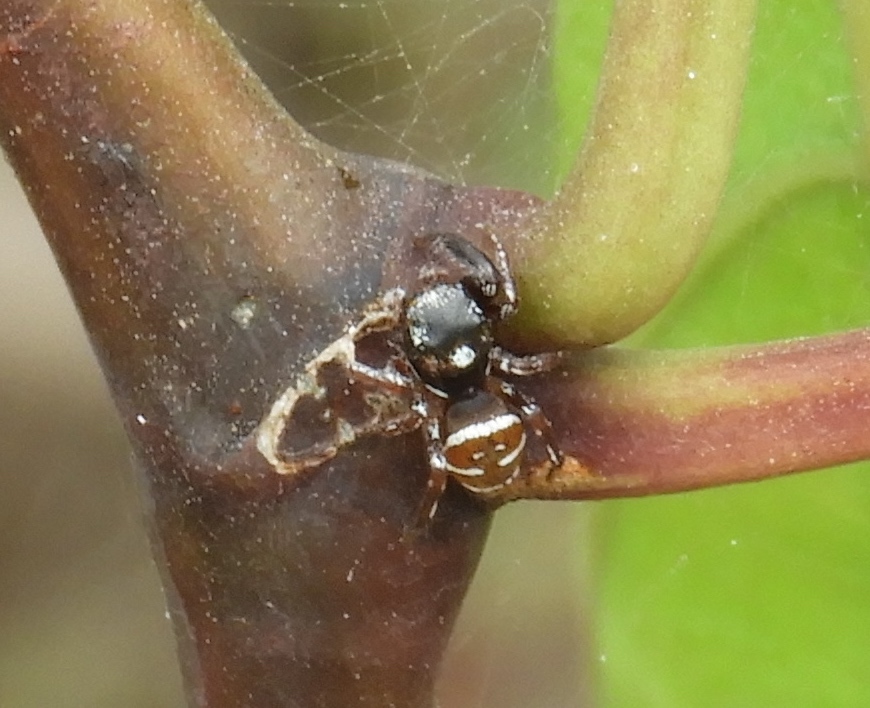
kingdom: Animalia
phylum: Arthropoda
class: Arachnida
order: Araneae
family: Salticidae
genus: Sassacus
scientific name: Sassacus
